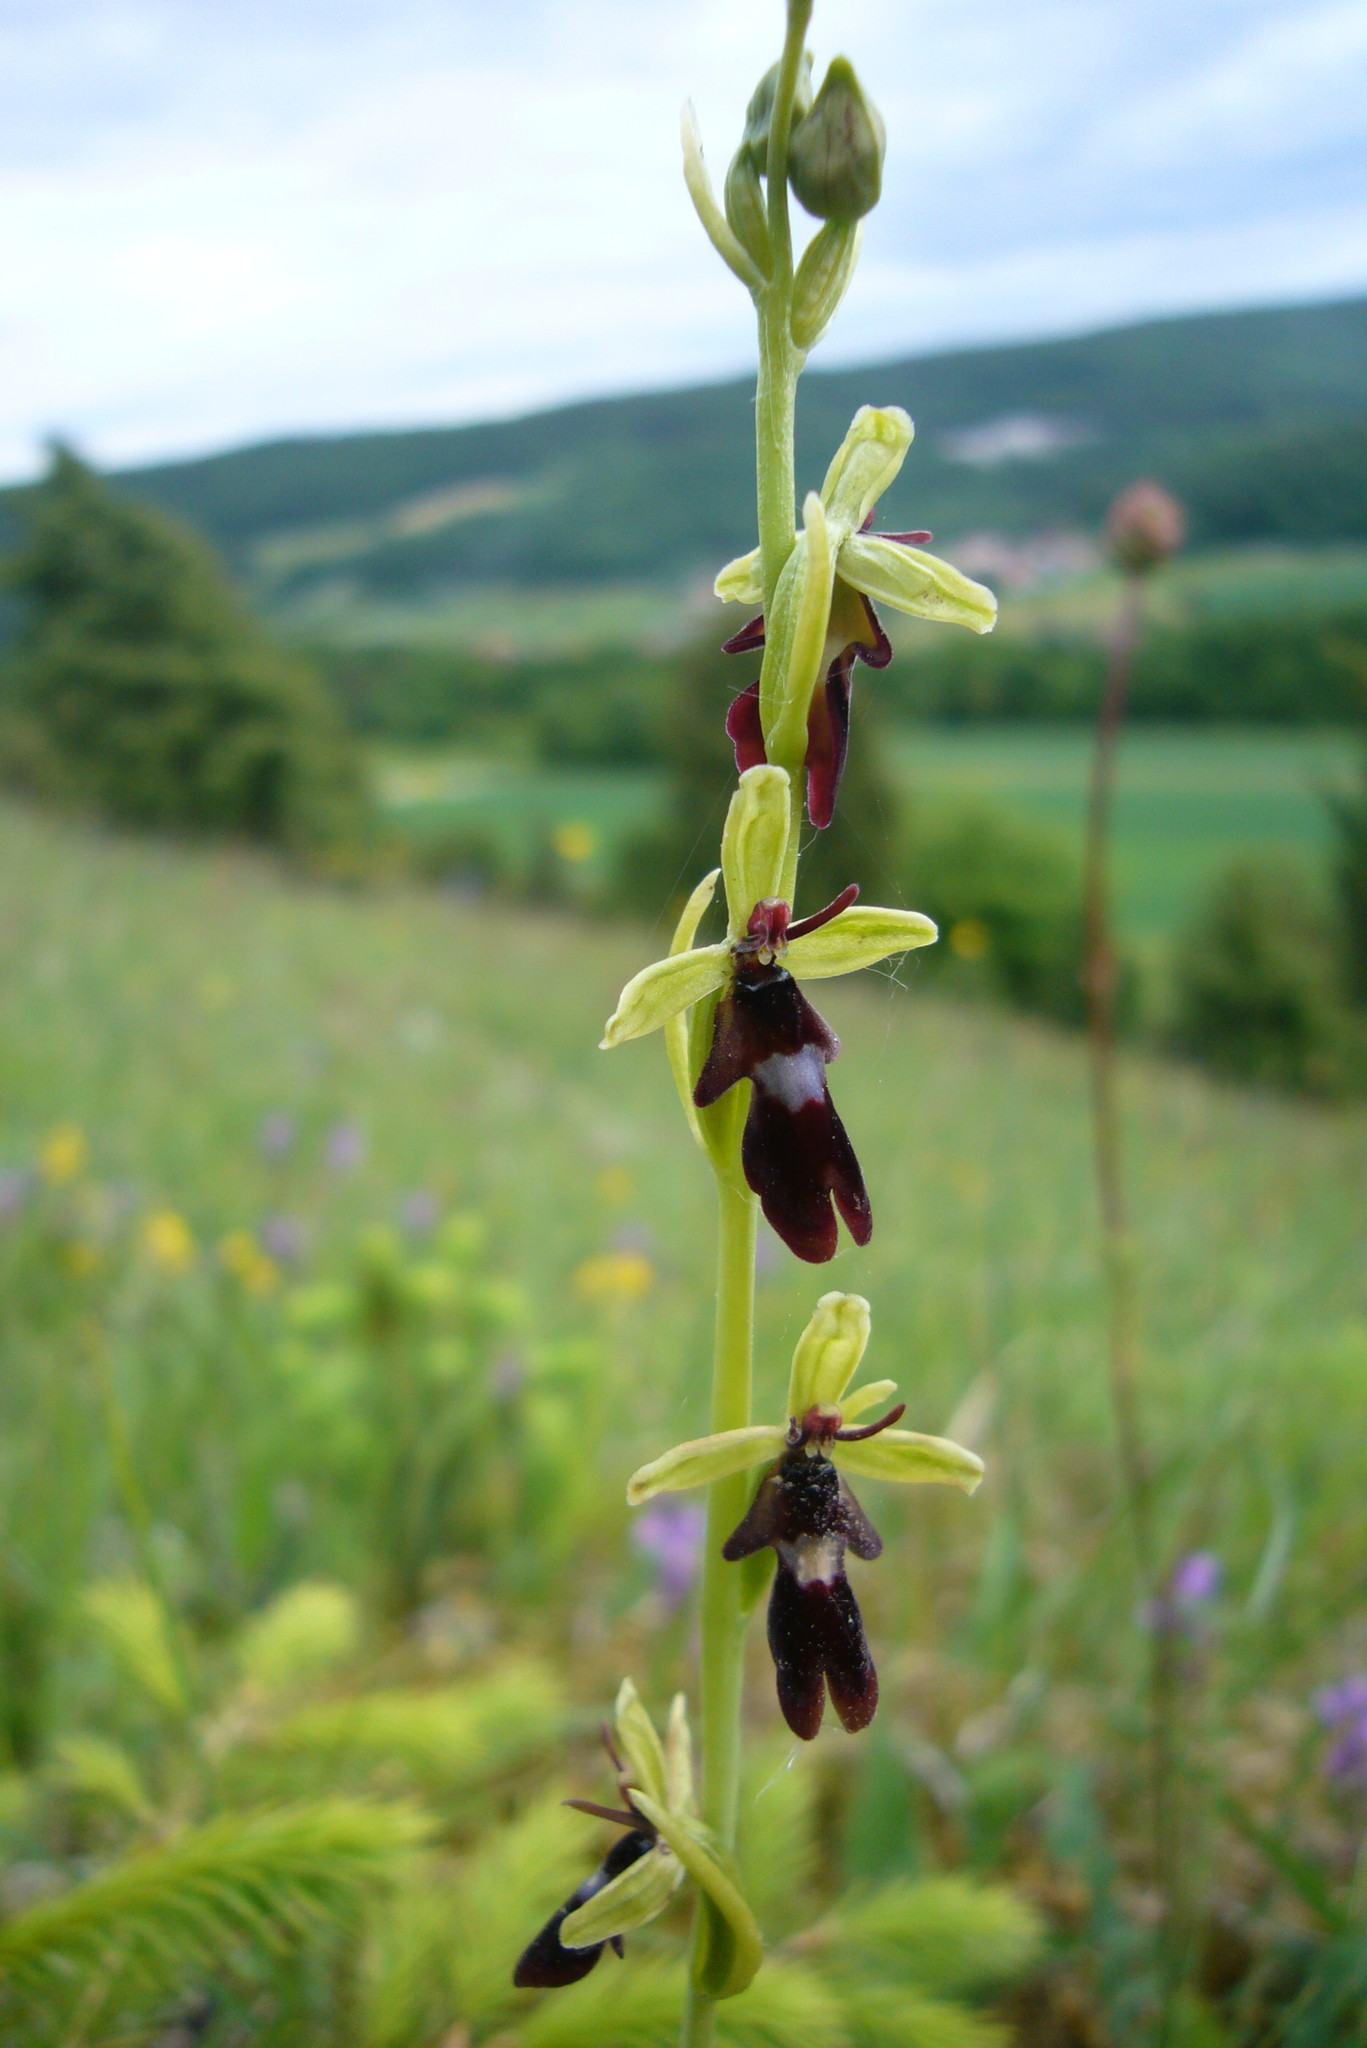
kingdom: Plantae
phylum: Tracheophyta
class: Liliopsida
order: Asparagales
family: Orchidaceae
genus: Ophrys
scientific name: Ophrys insectifera
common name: Fly orchid
